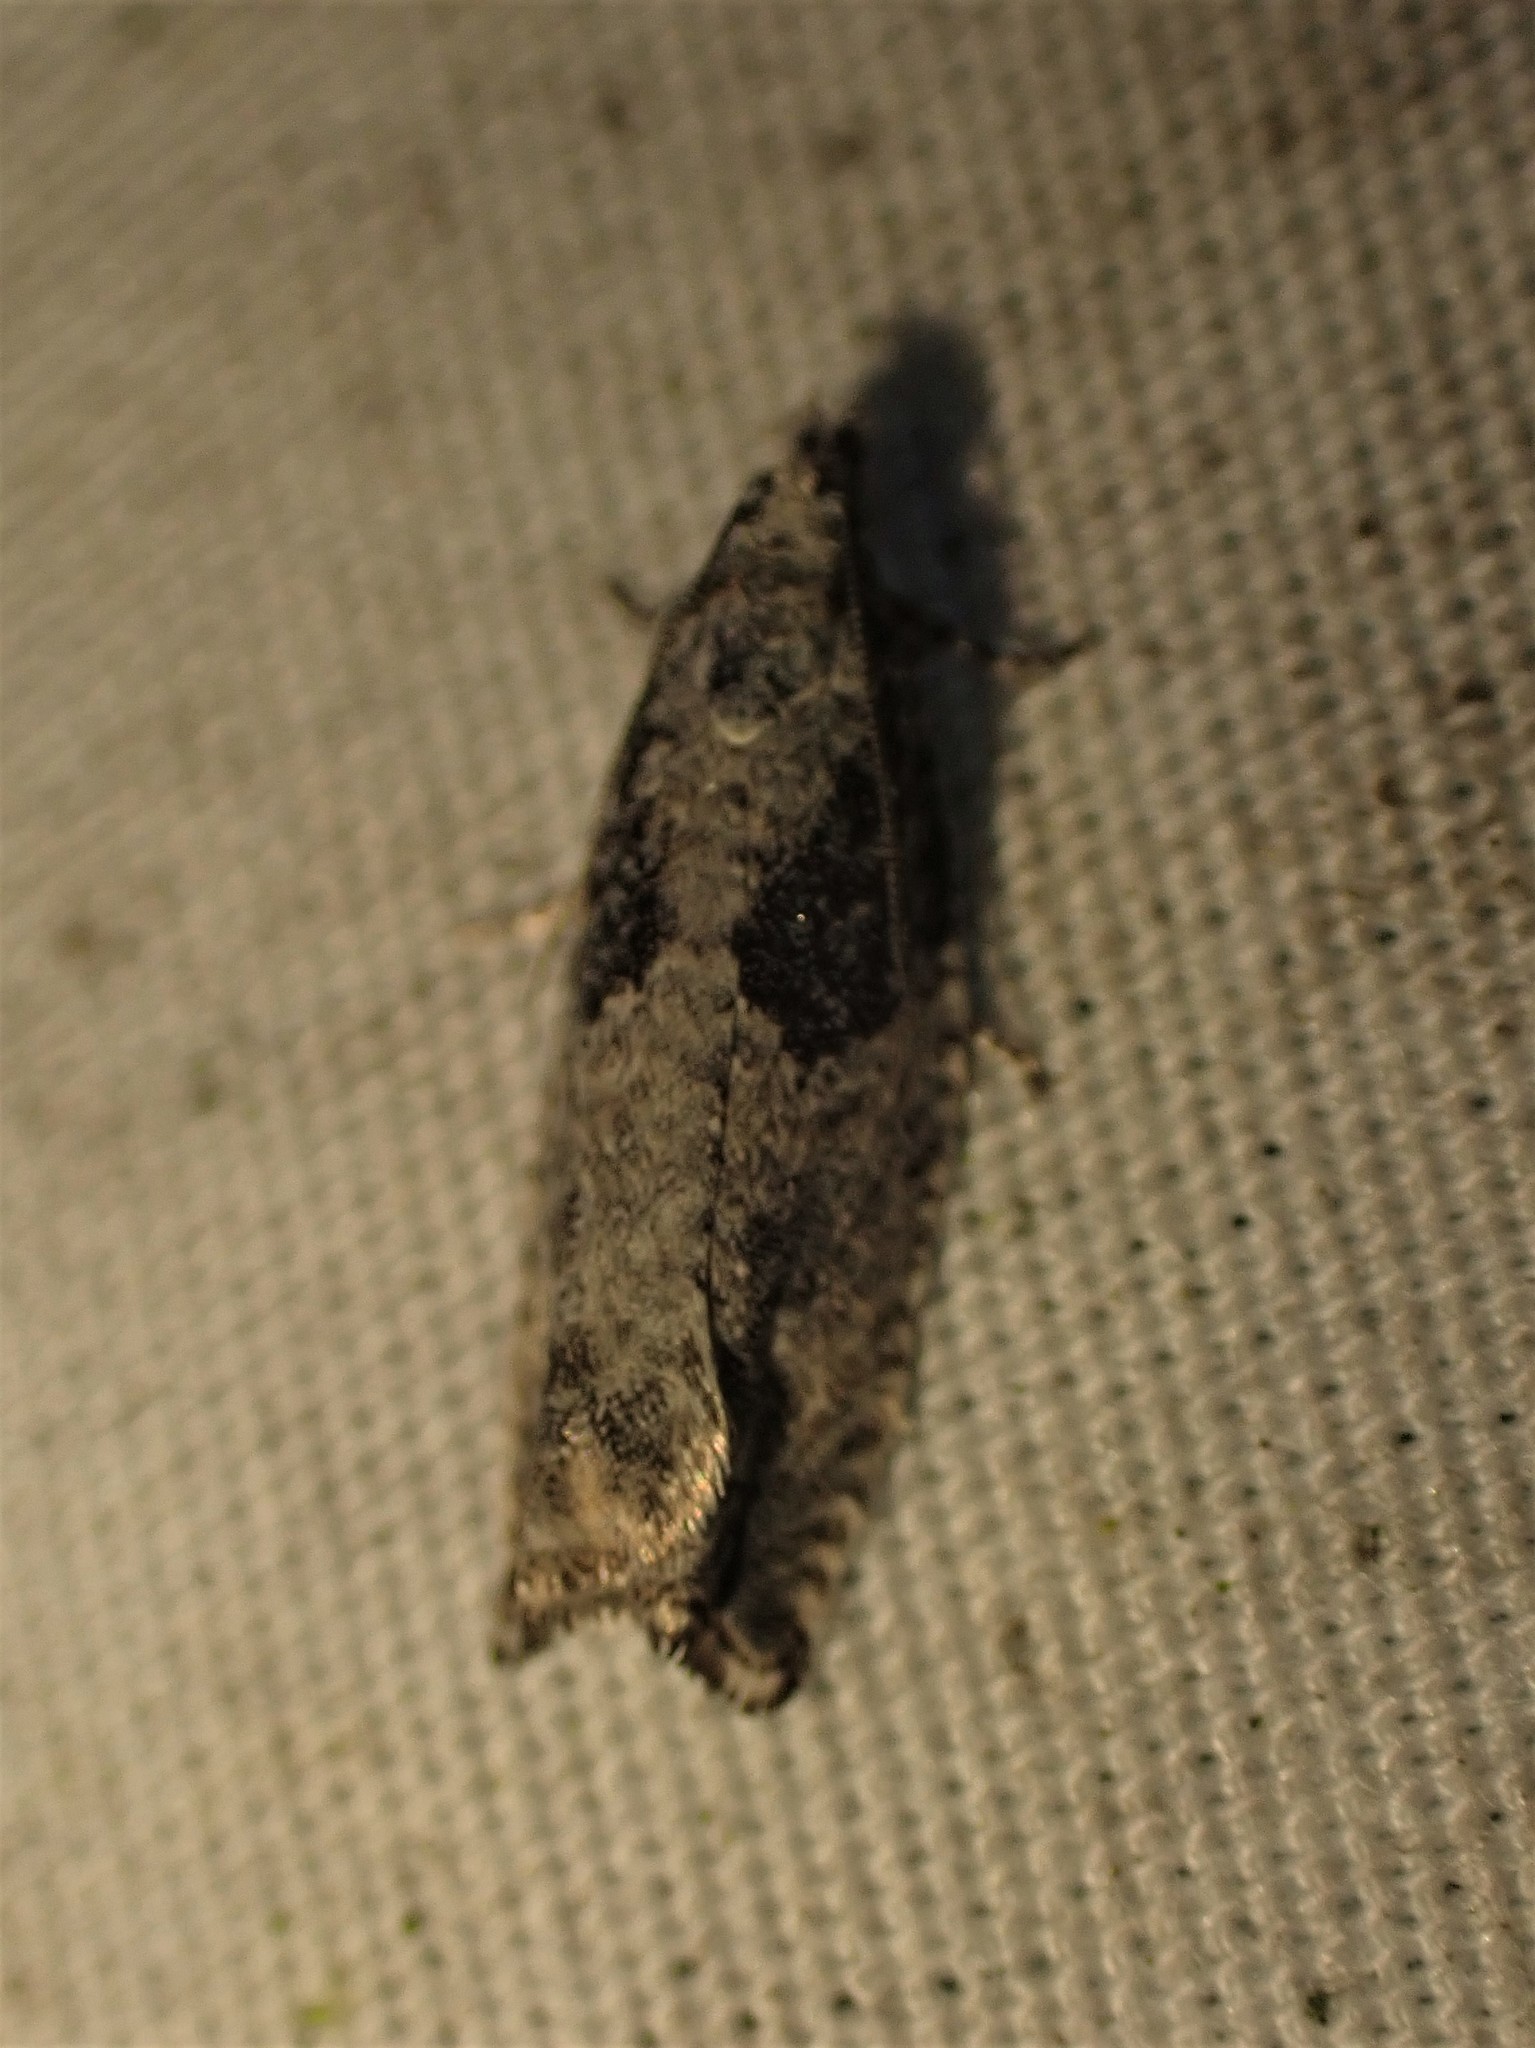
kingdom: Animalia
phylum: Arthropoda
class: Insecta
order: Lepidoptera
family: Tortricidae
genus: Epinotia
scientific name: Epinotia cinereana
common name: Grey aspen bell
